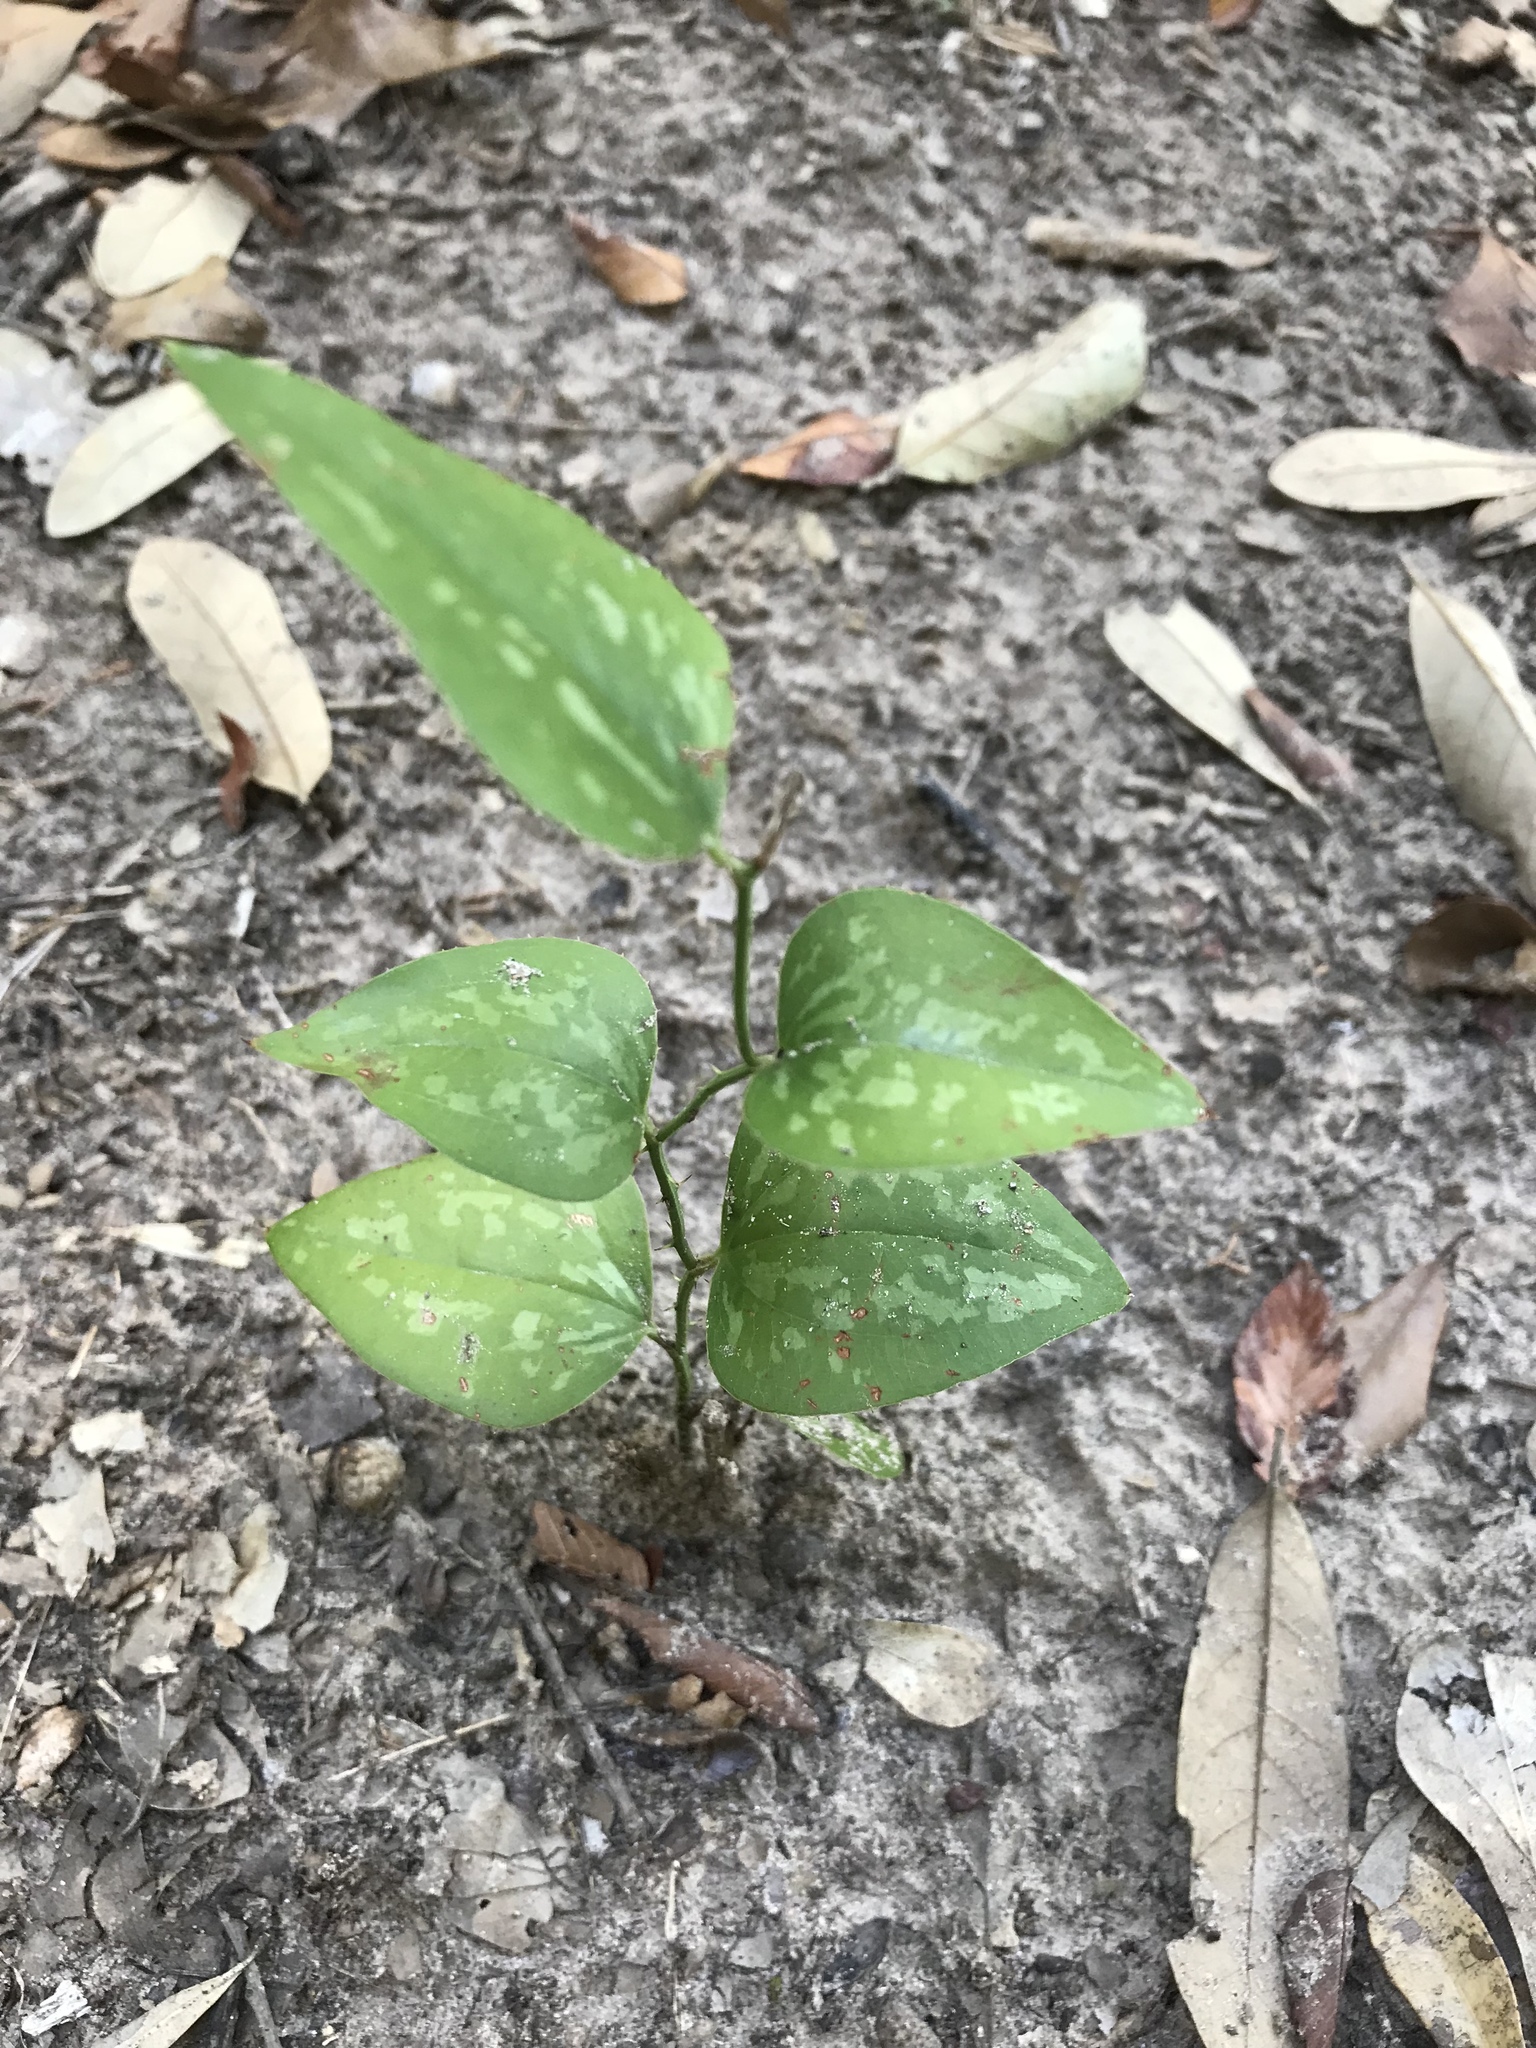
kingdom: Plantae
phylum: Tracheophyta
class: Liliopsida
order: Liliales
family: Smilacaceae
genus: Smilax
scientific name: Smilax bona-nox
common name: Catbrier
